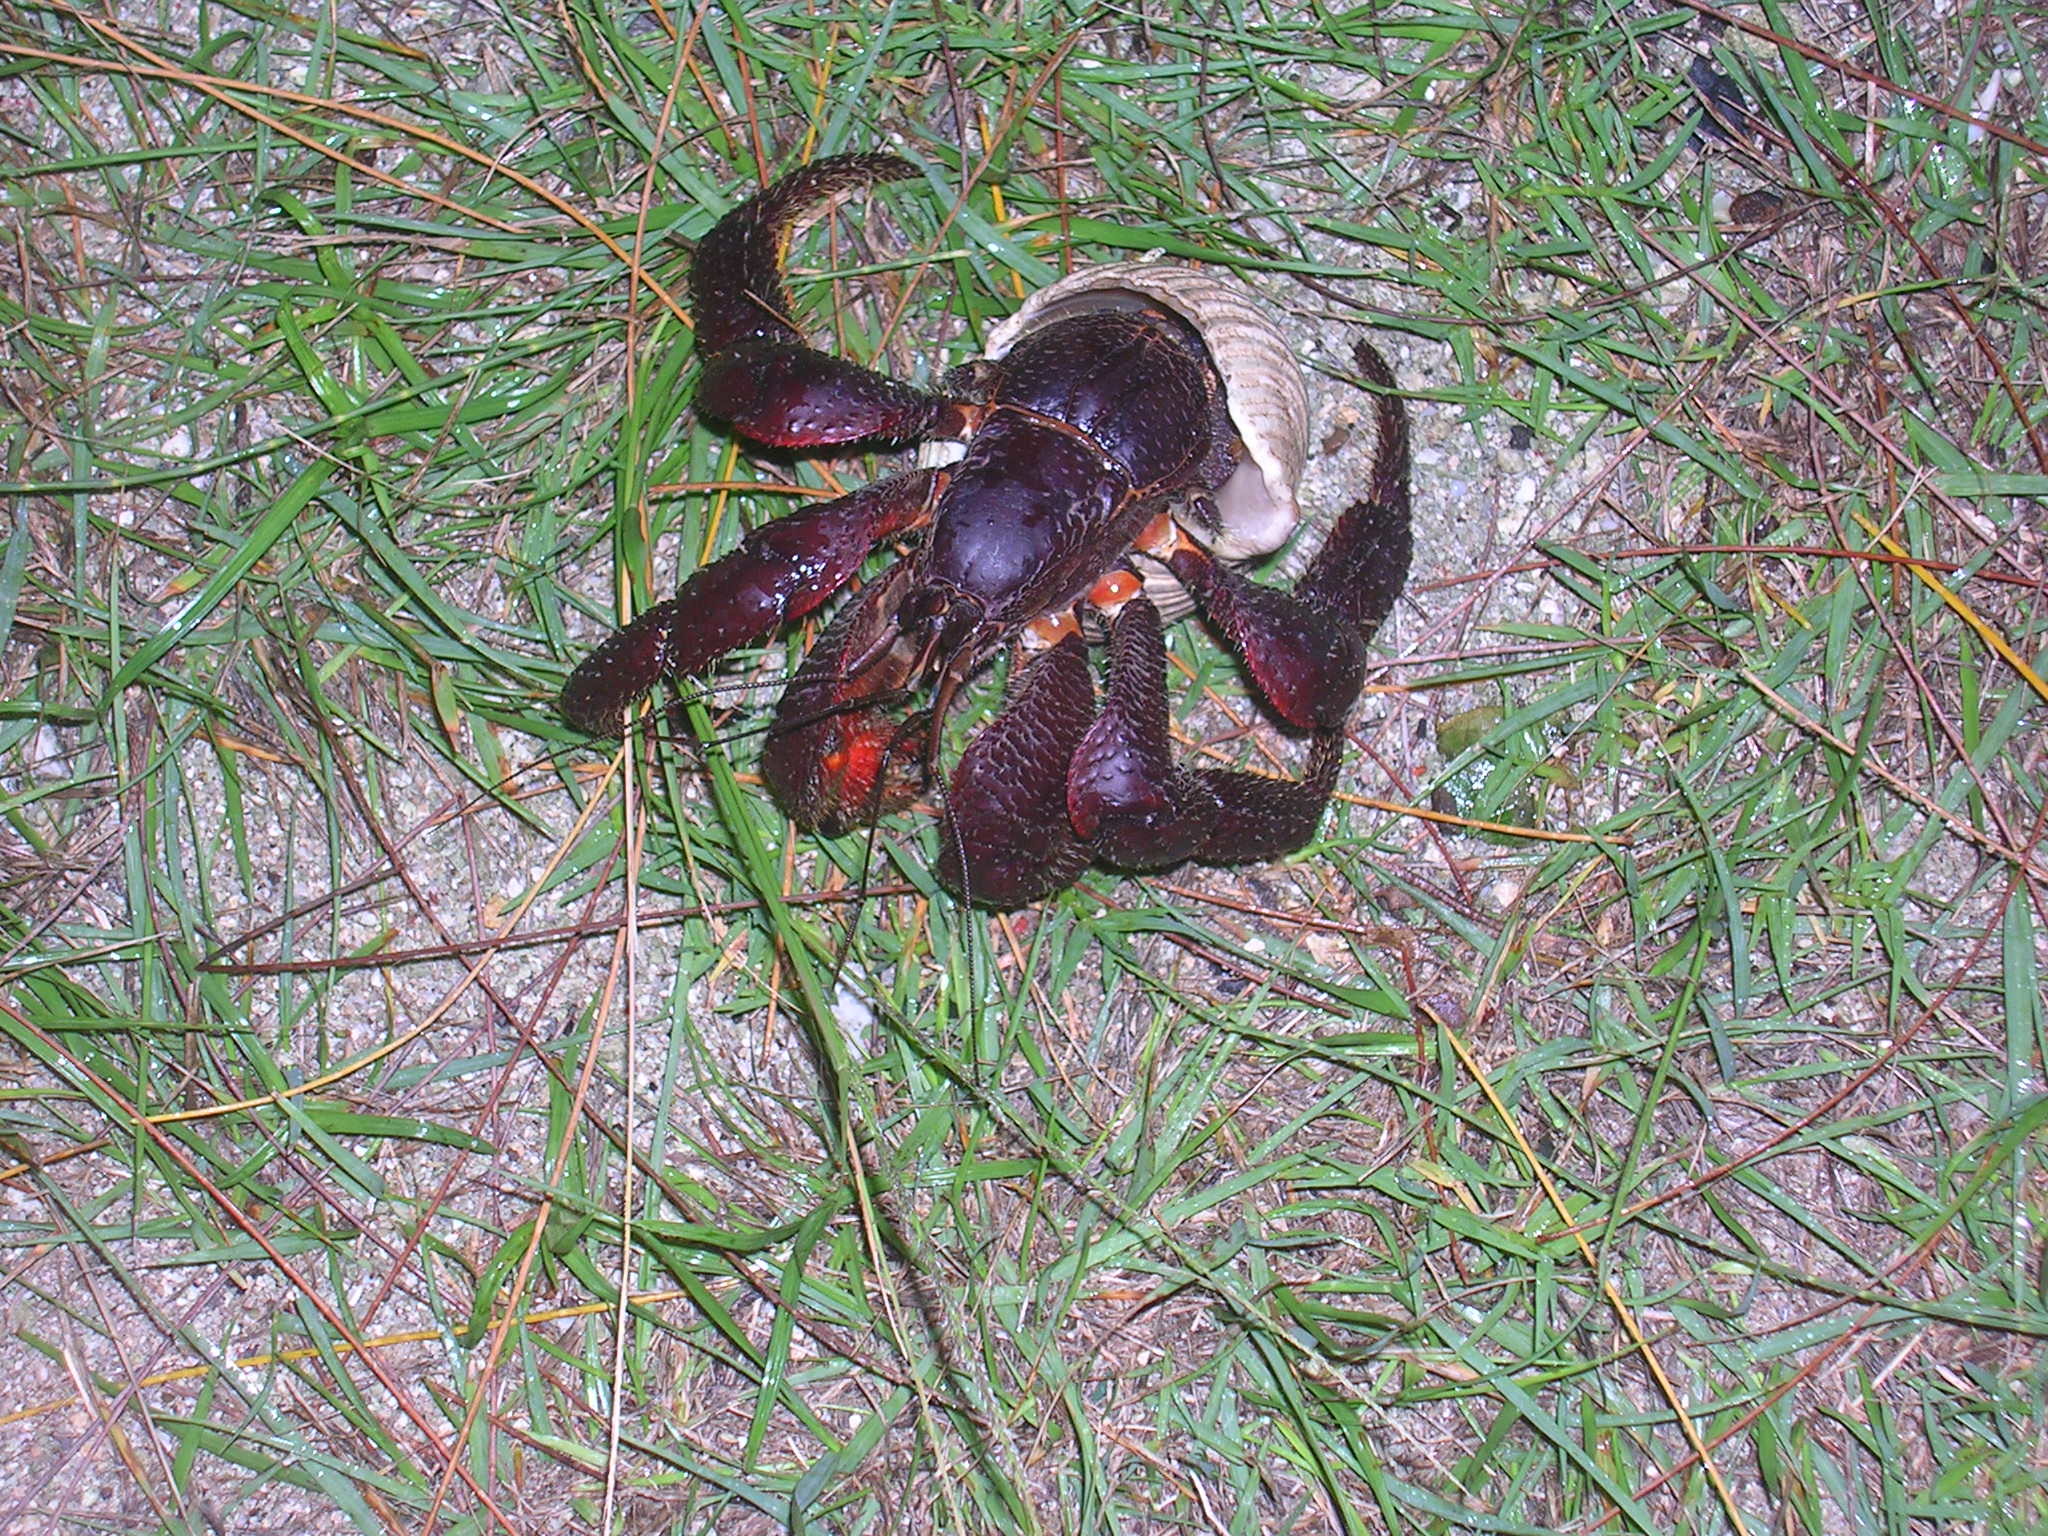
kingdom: Animalia
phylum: Arthropoda
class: Malacostraca
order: Decapoda
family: Coenobitidae
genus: Coenobita
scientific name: Coenobita spinosus
